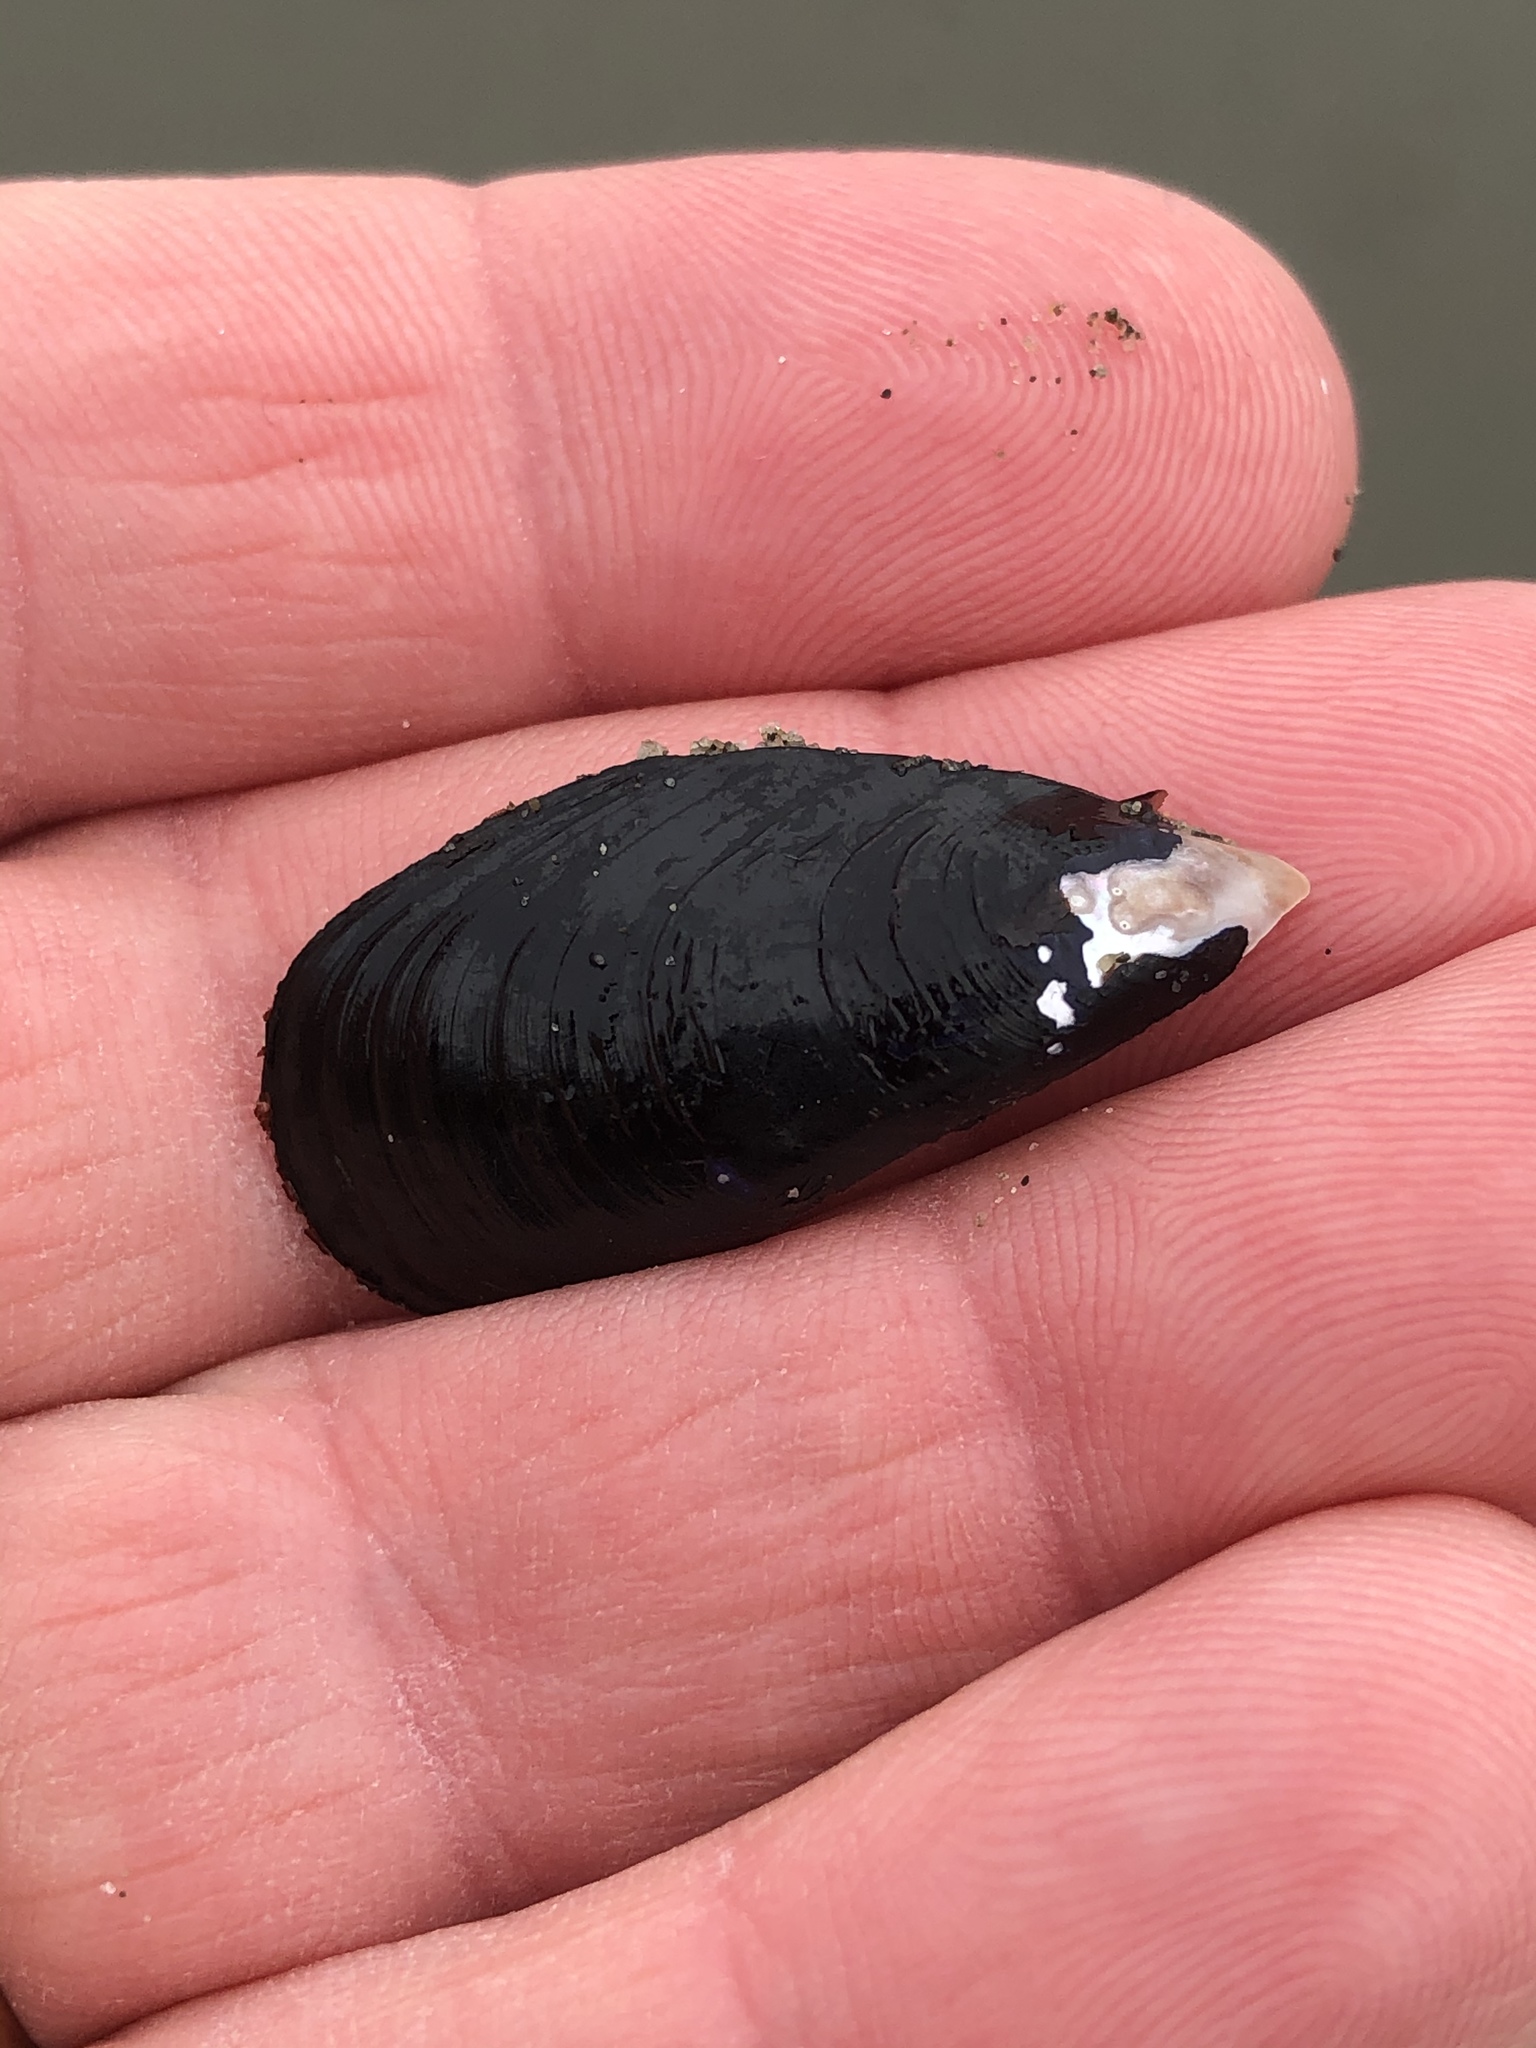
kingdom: Animalia
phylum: Mollusca
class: Bivalvia
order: Mytilida
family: Mytilidae
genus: Xenostrobus
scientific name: Xenostrobus neozelanicus
